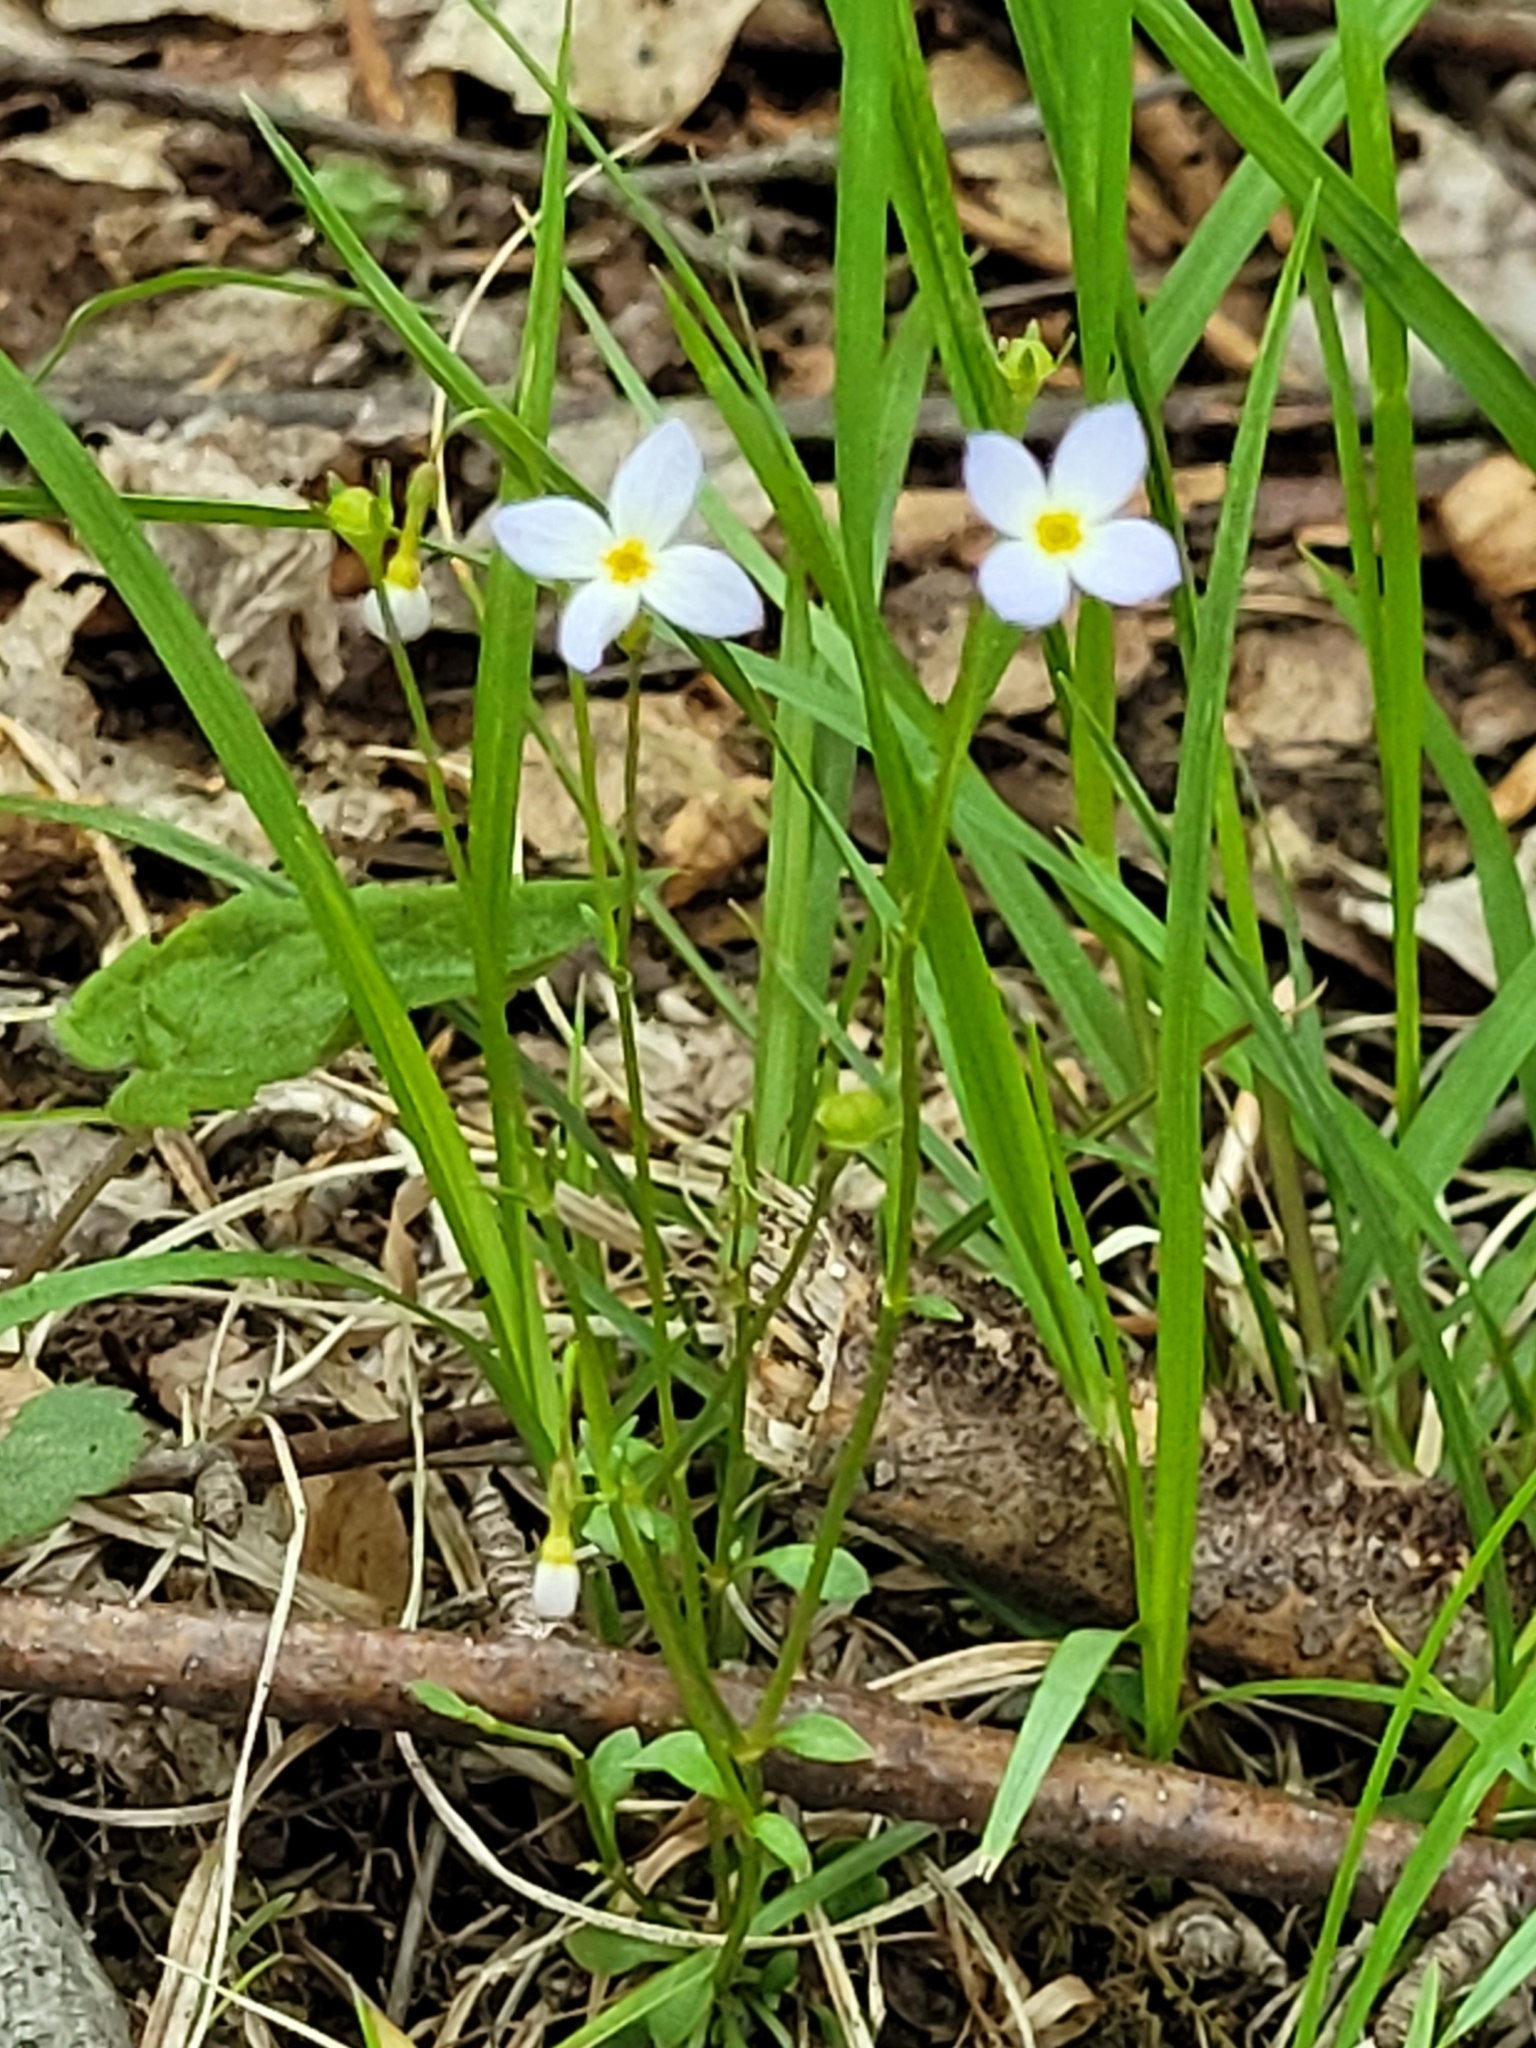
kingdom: Plantae
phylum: Tracheophyta
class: Magnoliopsida
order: Gentianales
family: Rubiaceae
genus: Houstonia
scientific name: Houstonia caerulea
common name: Bluets
